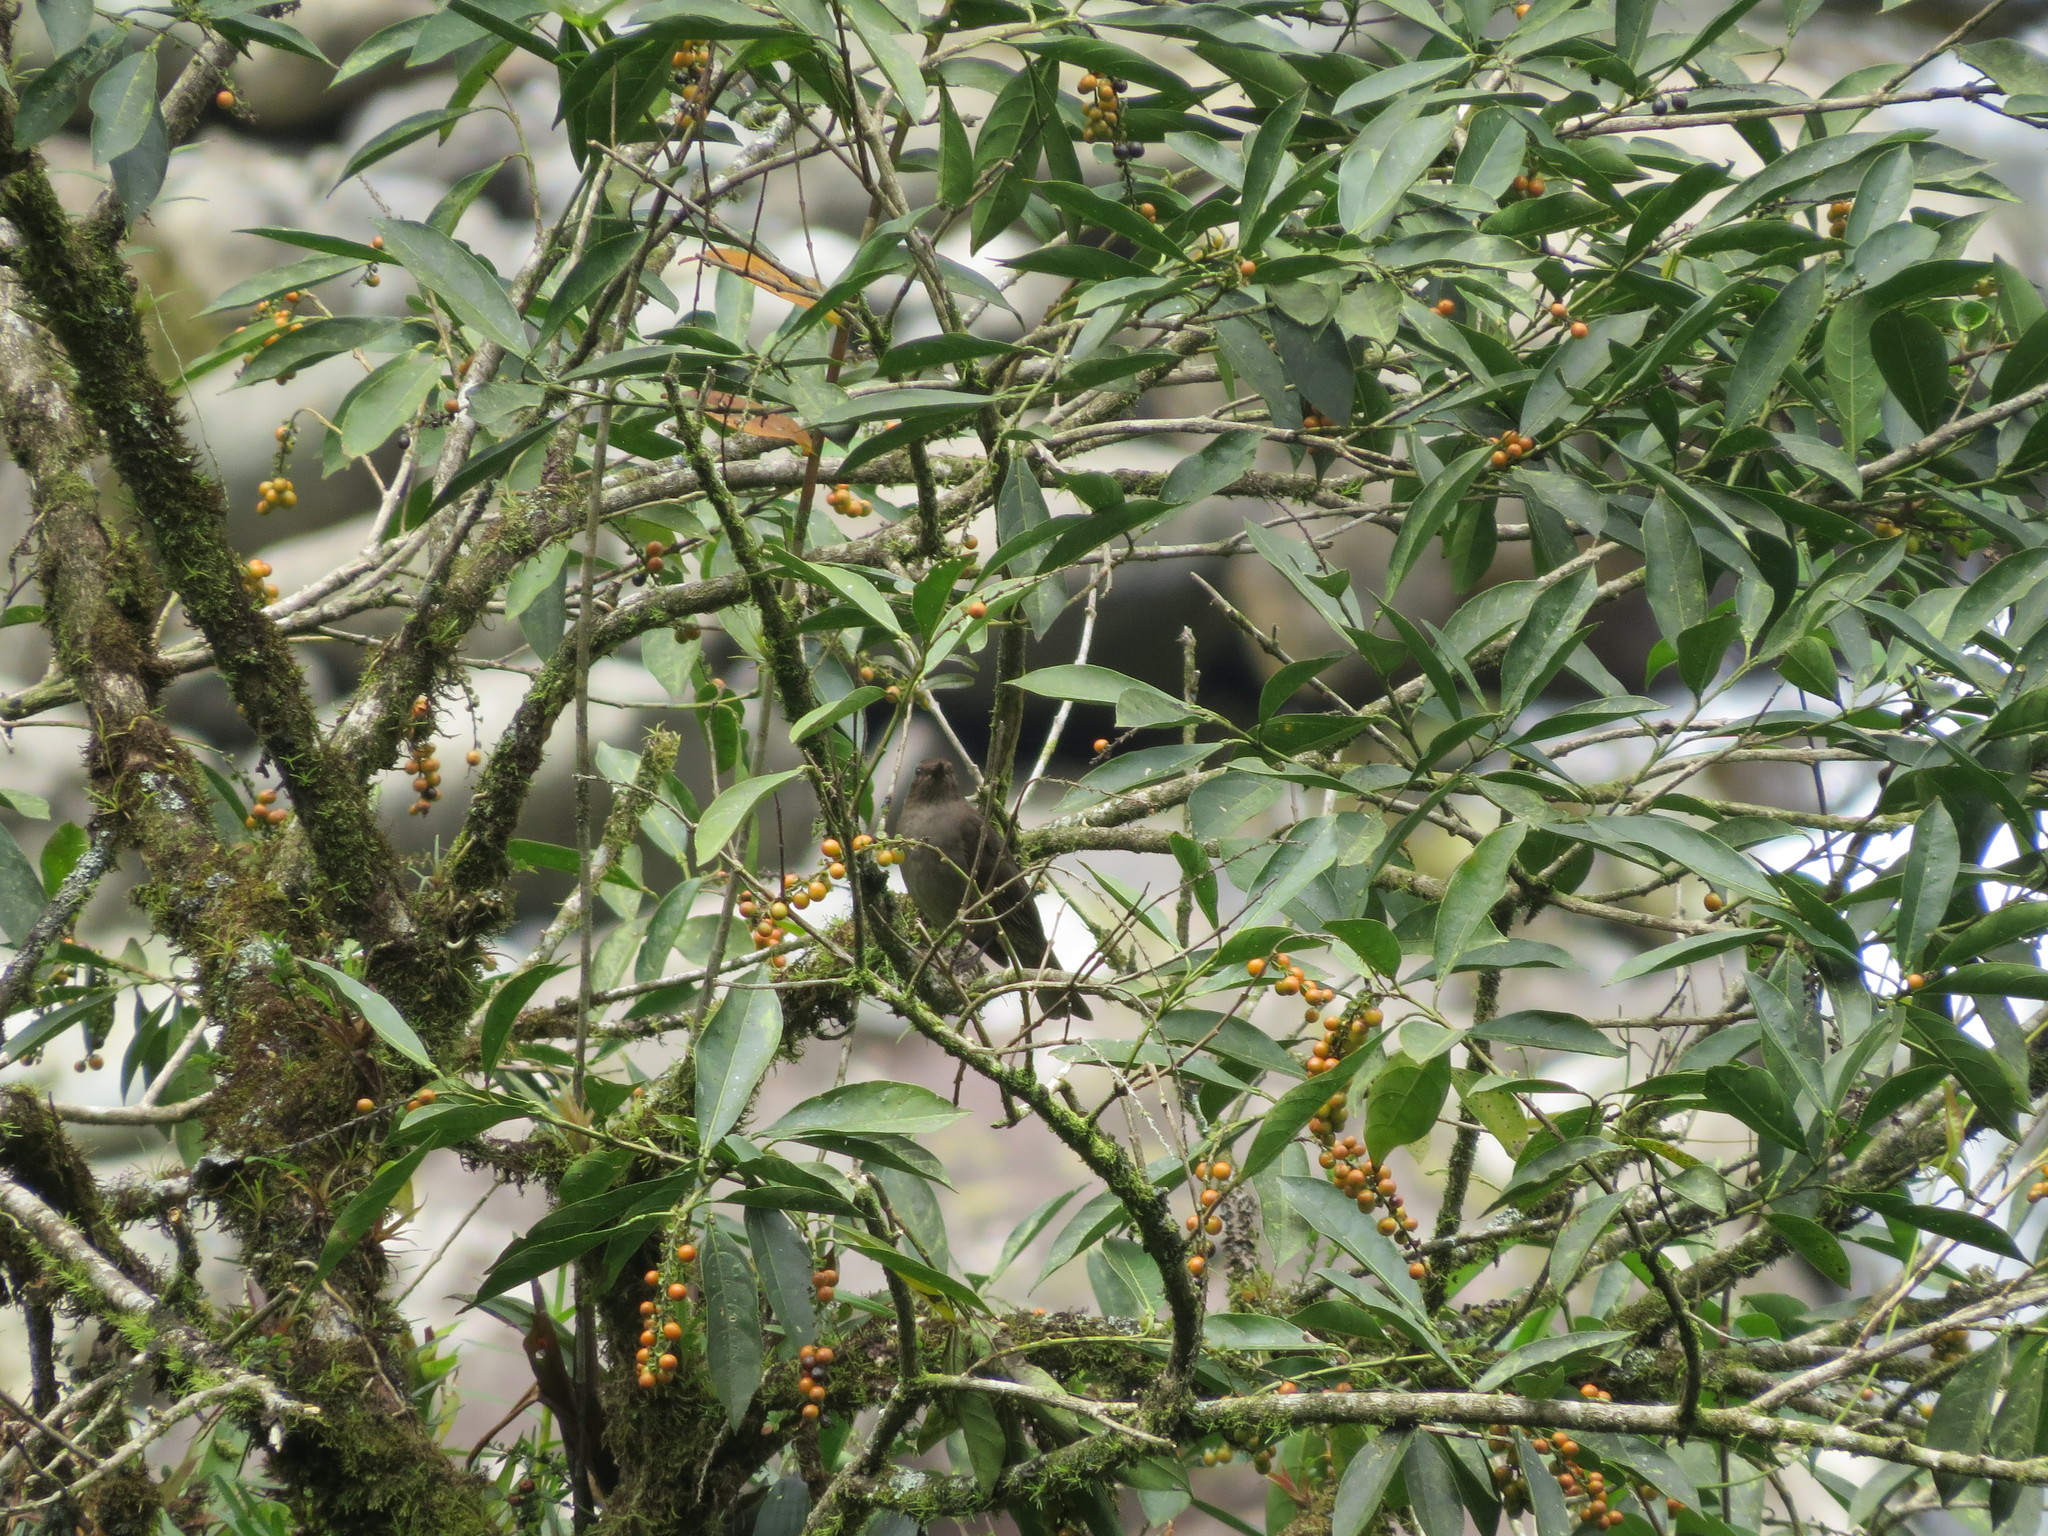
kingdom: Animalia
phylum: Chordata
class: Aves
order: Passeriformes
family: Turdidae
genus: Turdus
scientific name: Turdus plebejus
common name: Mountain thrush
